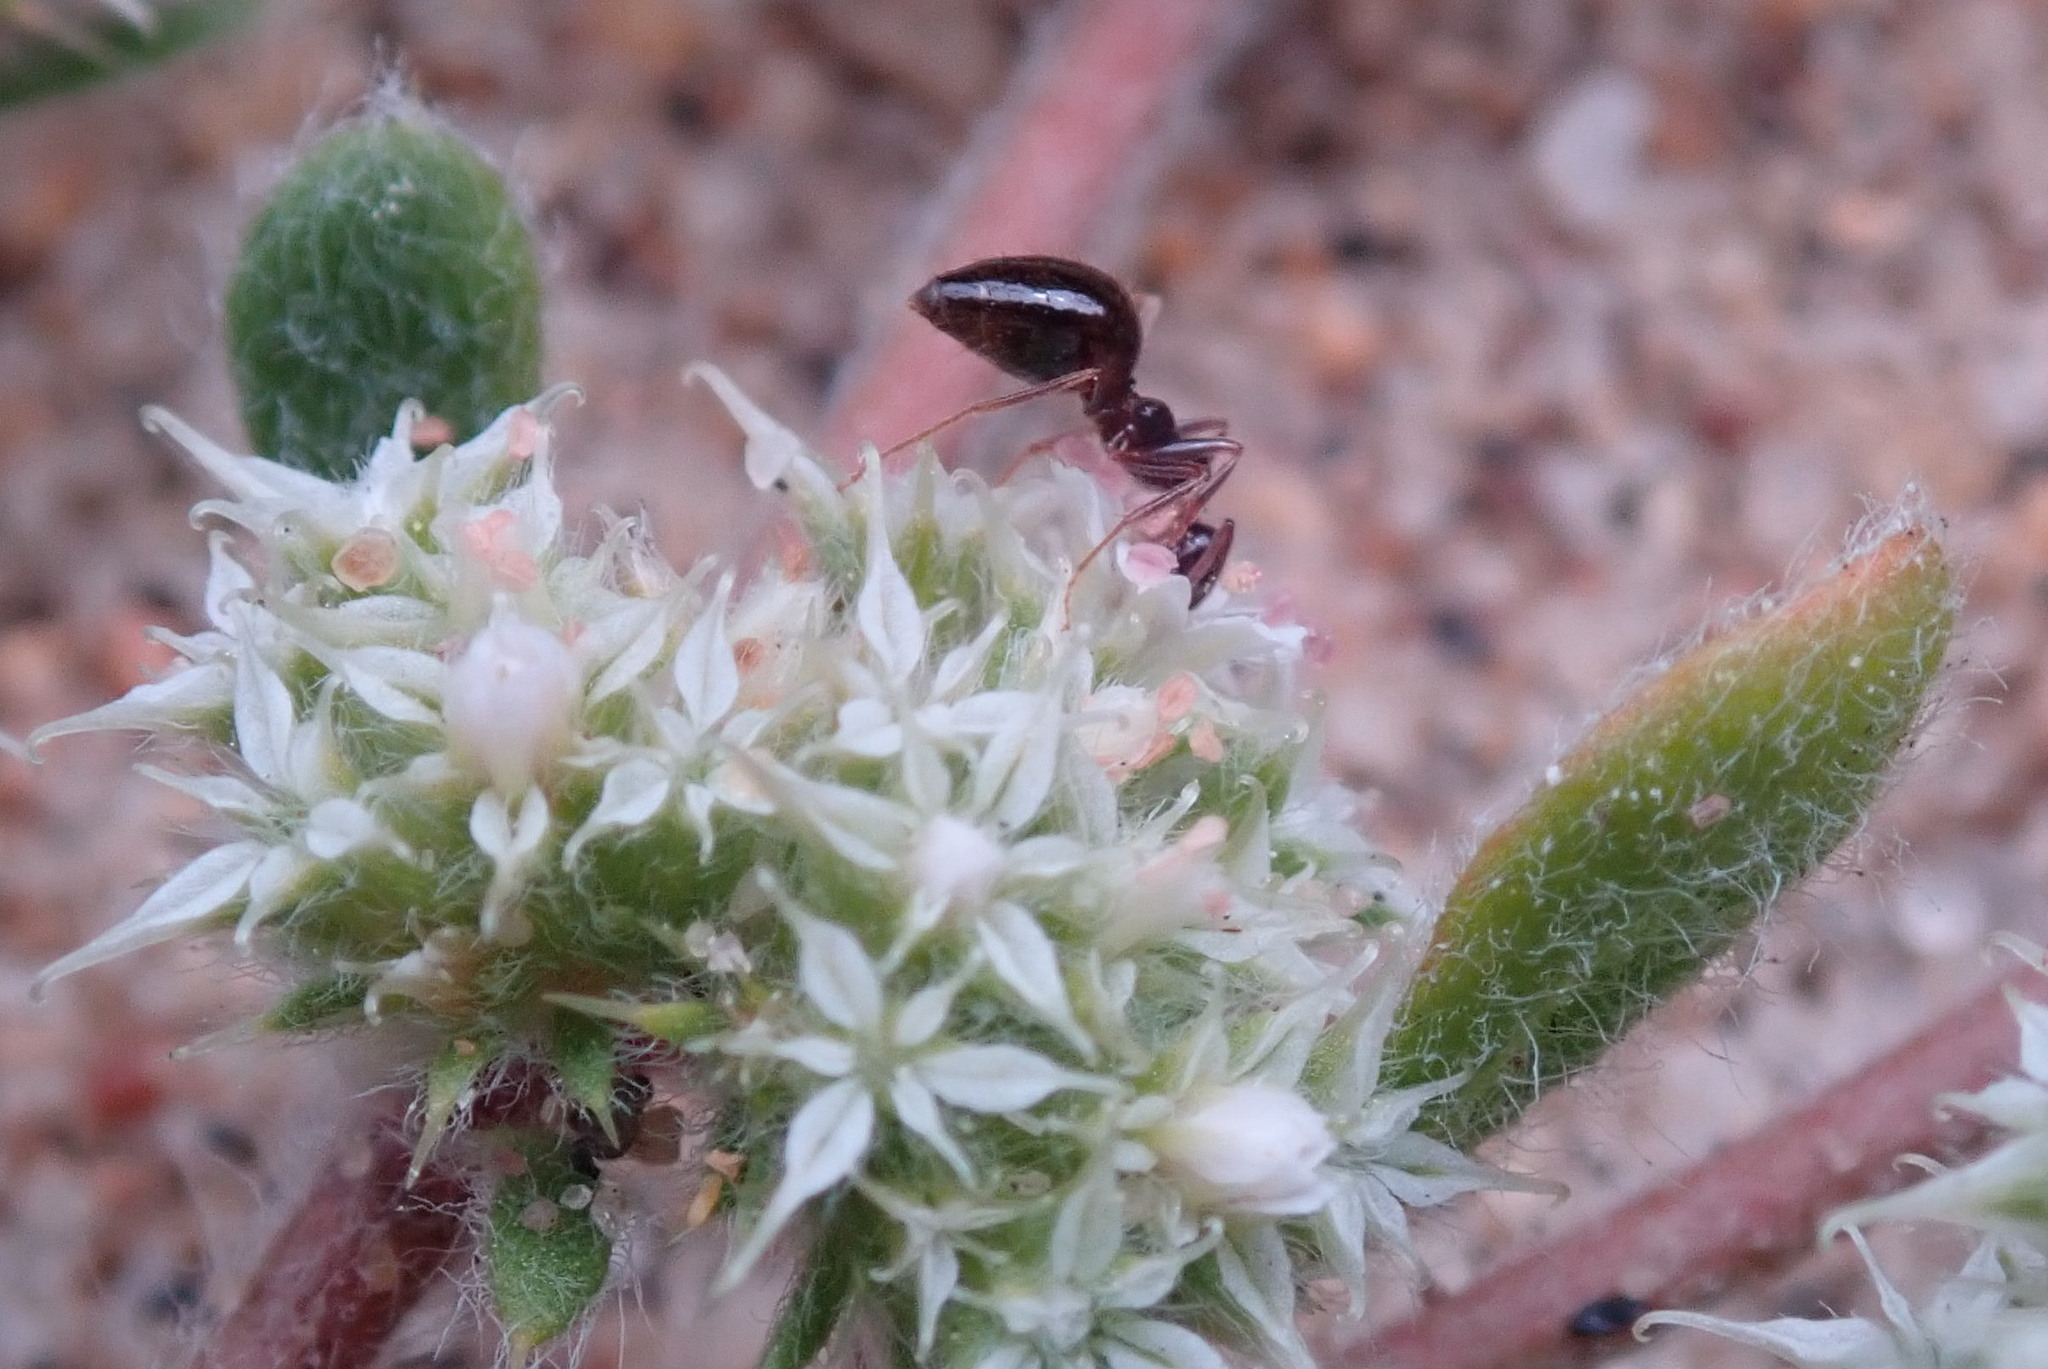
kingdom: Animalia
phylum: Arthropoda
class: Insecta
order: Hymenoptera
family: Formicidae
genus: Prenolepis
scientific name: Prenolepis imparis
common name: Small honey ant
